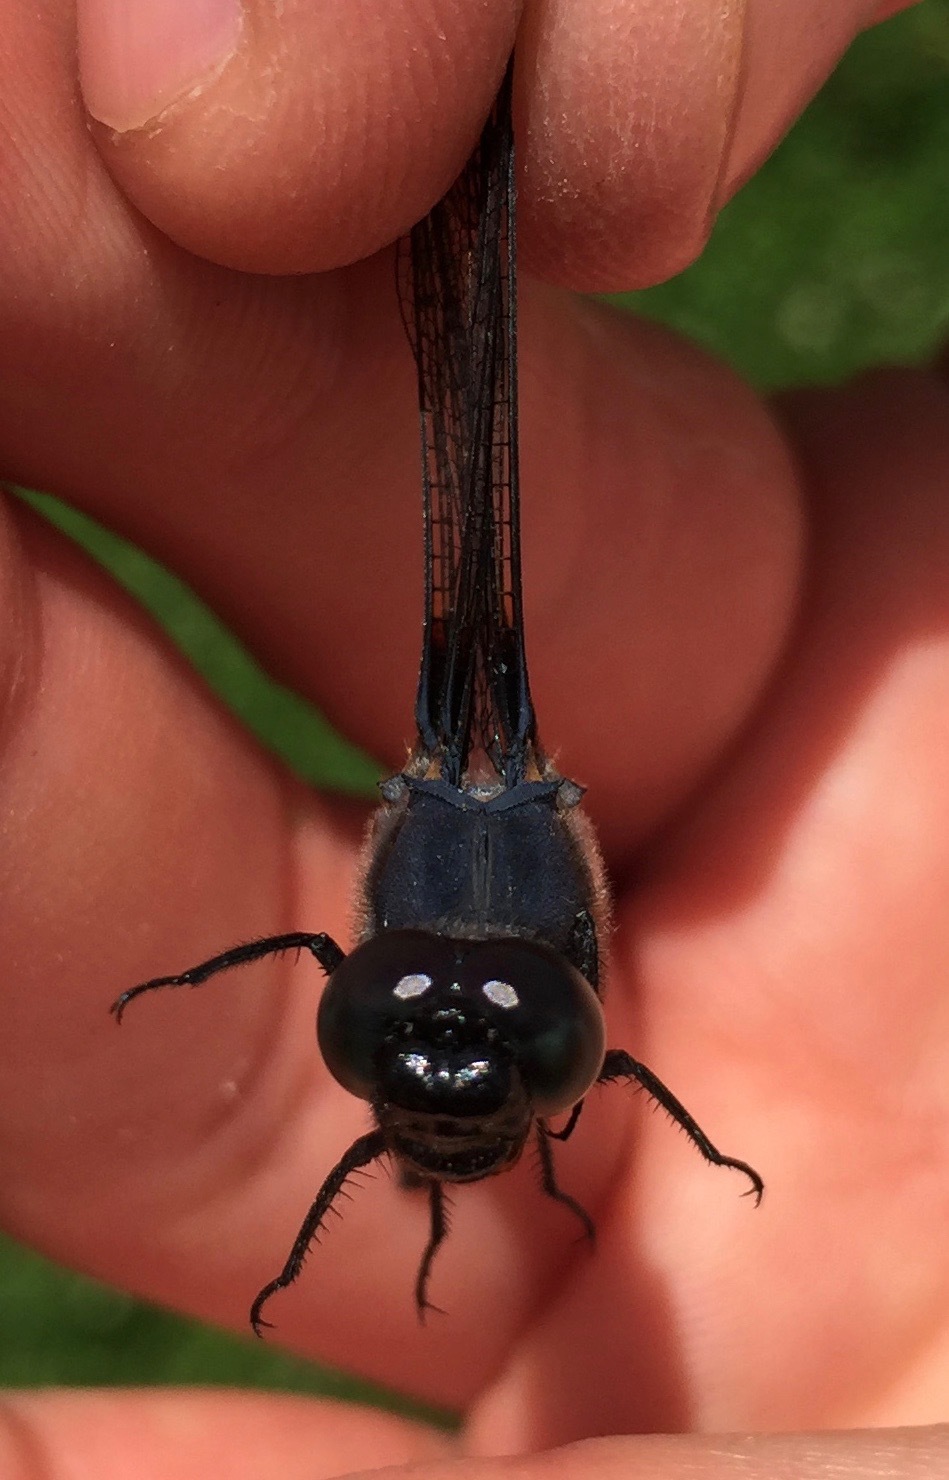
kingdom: Animalia
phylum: Arthropoda
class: Insecta
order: Odonata
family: Libellulidae
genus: Libellula
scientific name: Libellula cyanea
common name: Spangled skimmer
